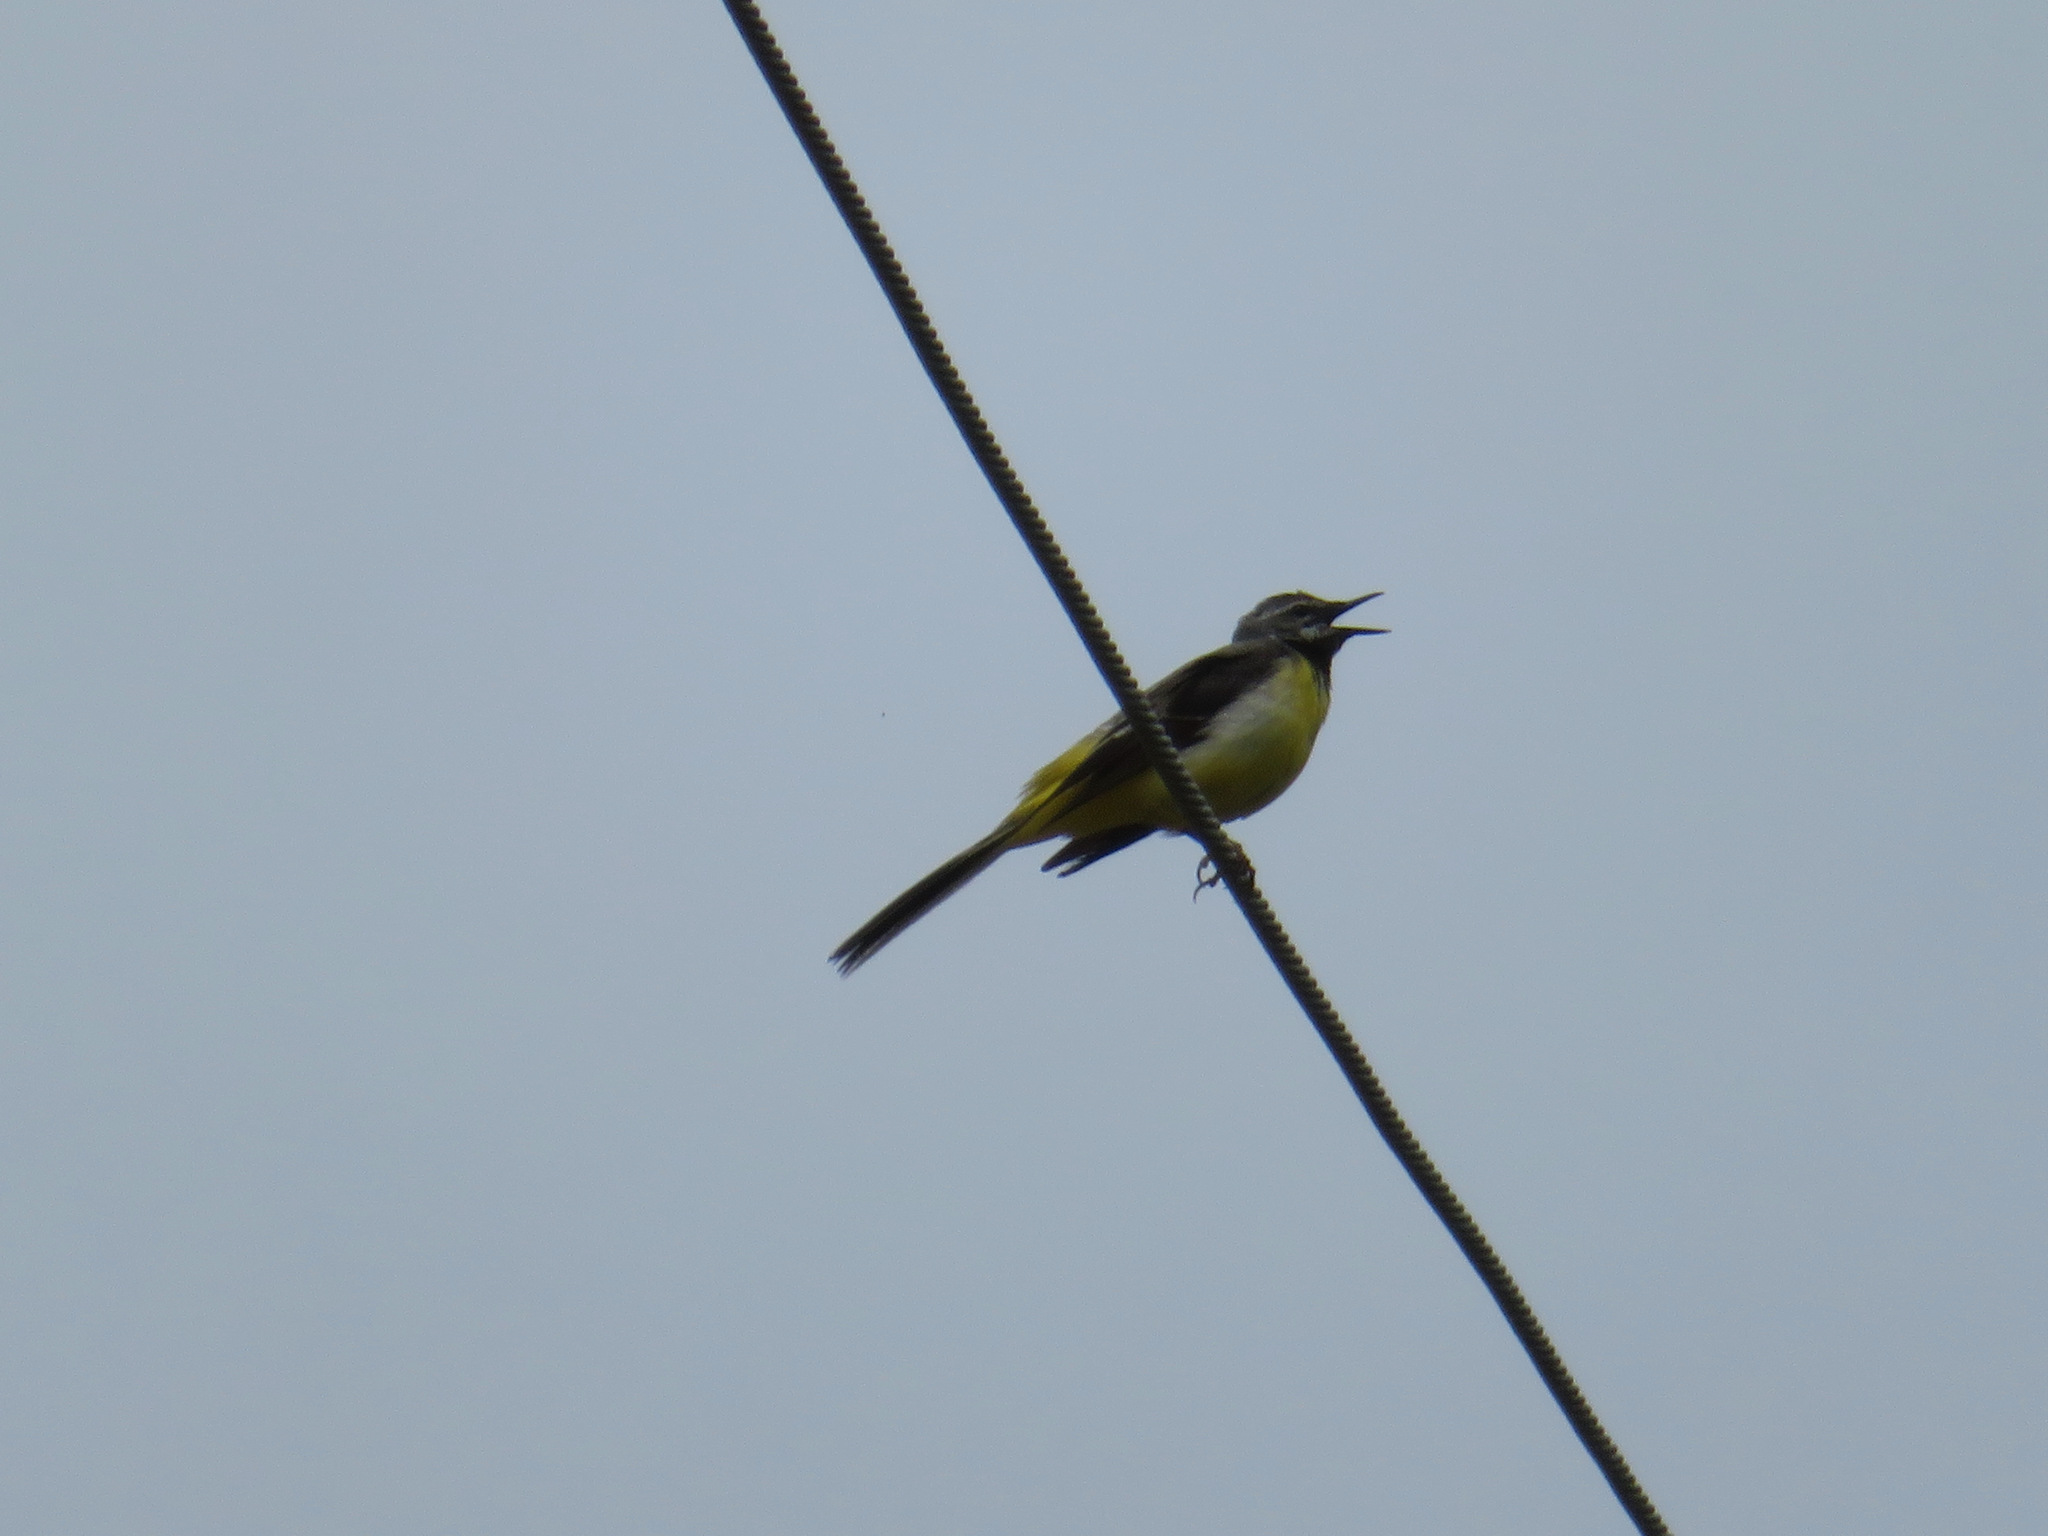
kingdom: Animalia
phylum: Chordata
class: Aves
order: Passeriformes
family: Motacillidae
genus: Motacilla
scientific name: Motacilla cinerea
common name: Grey wagtail
